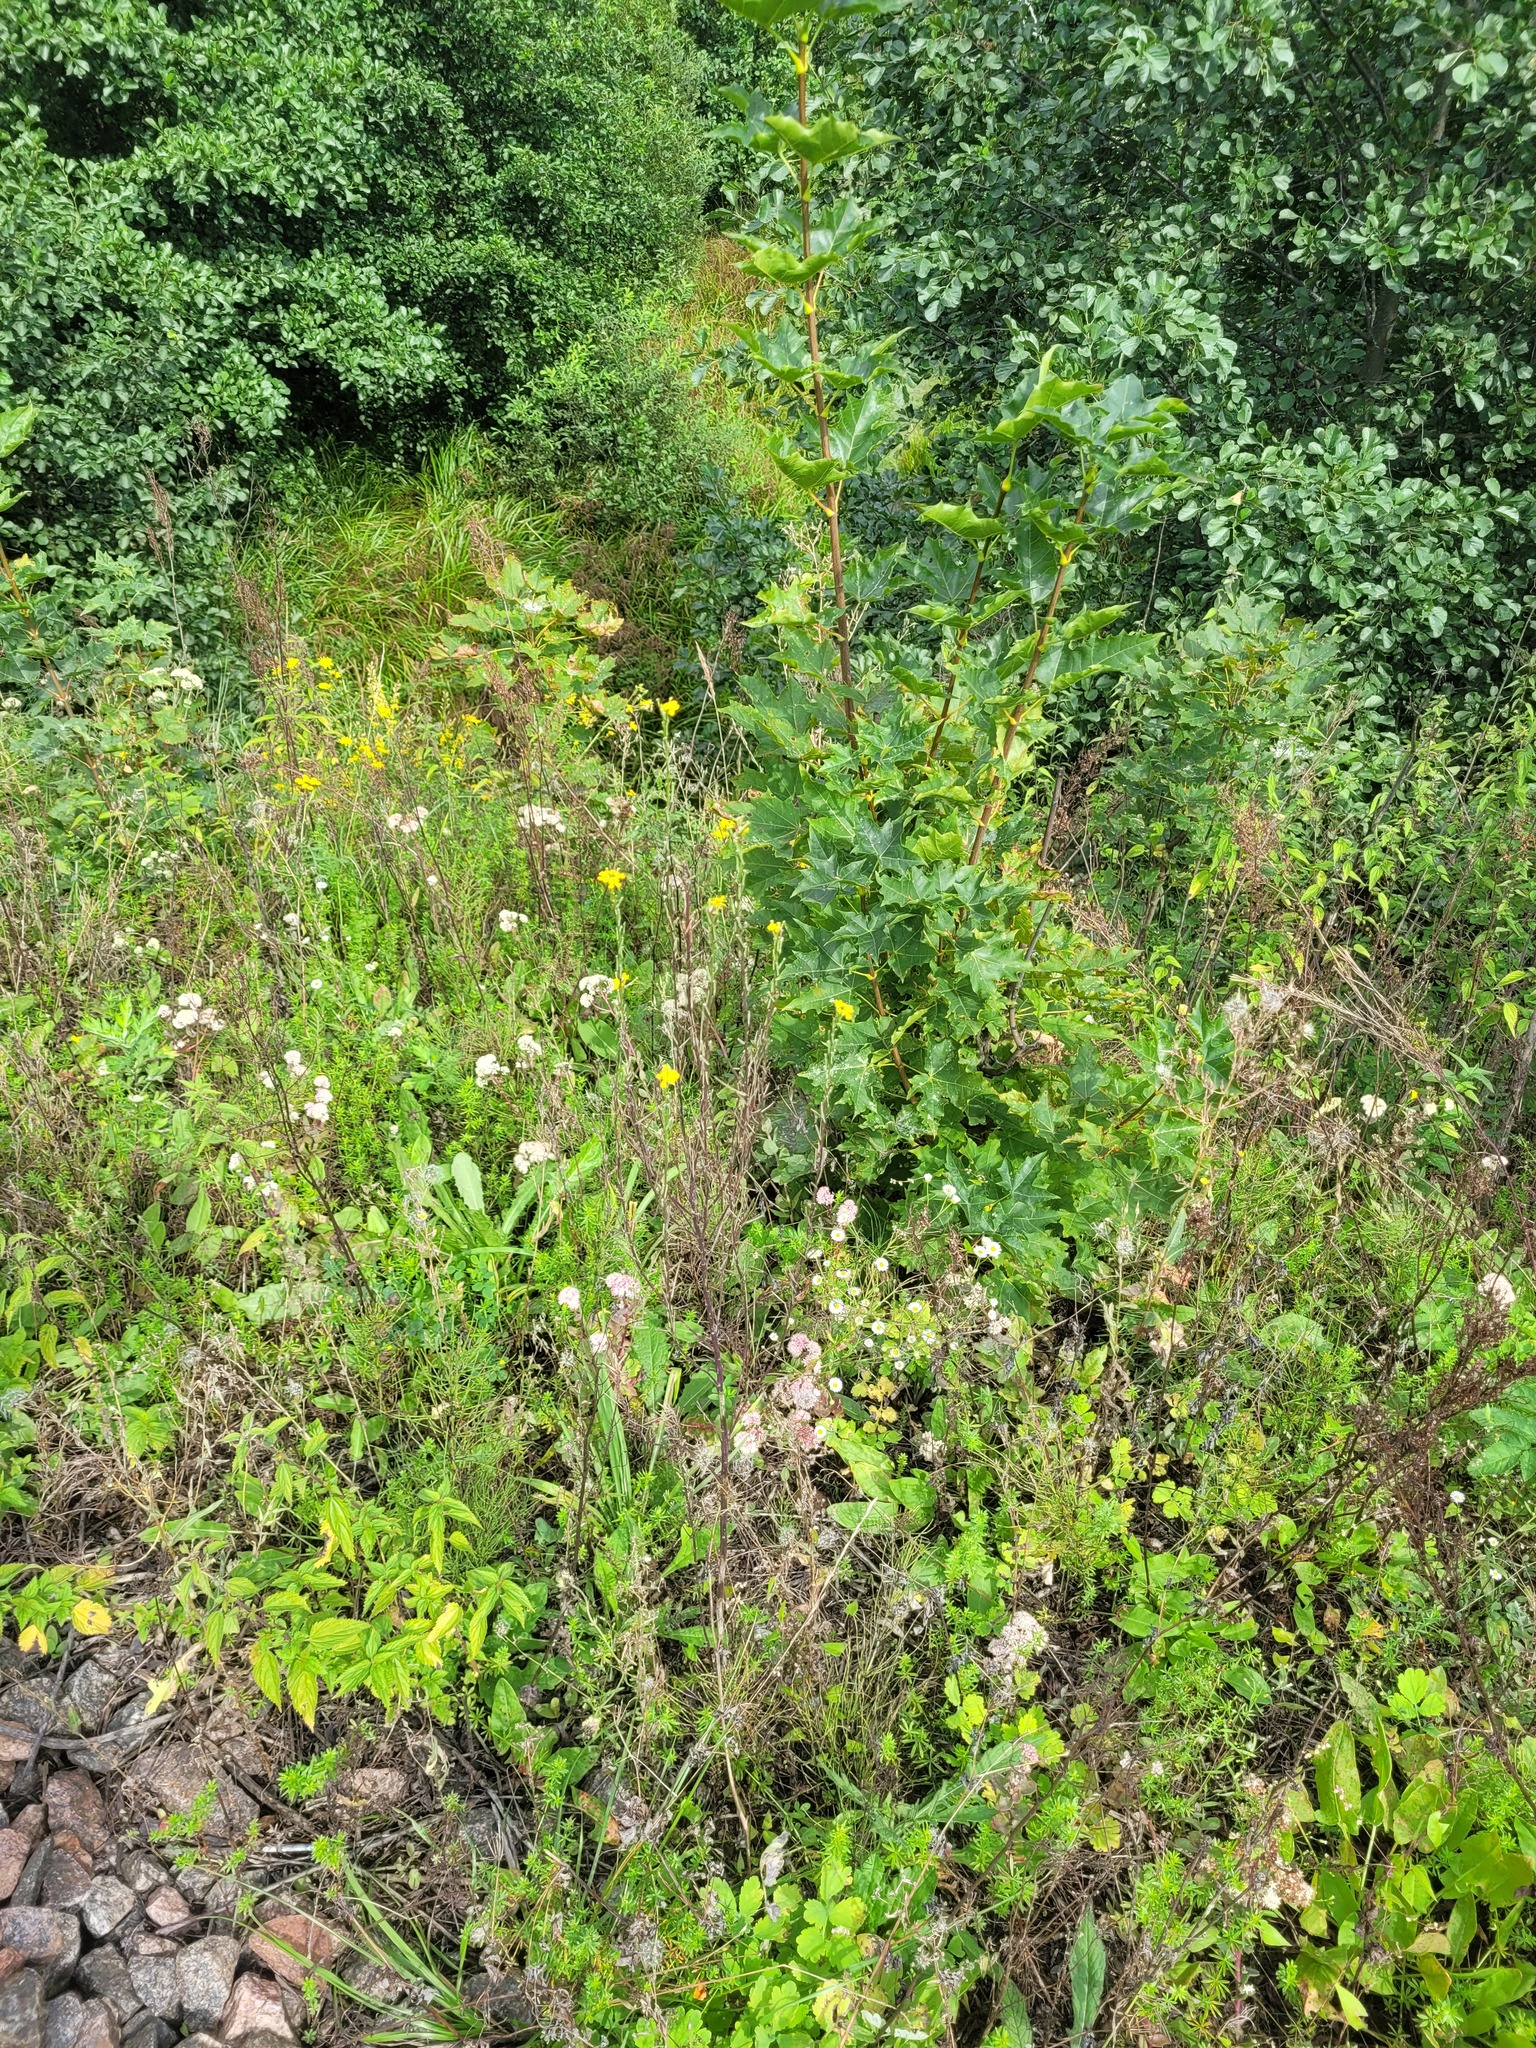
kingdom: Plantae
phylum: Tracheophyta
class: Magnoliopsida
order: Brassicales
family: Brassicaceae
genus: Erysimum
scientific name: Erysimum hieraciifolium
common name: European wallflower
